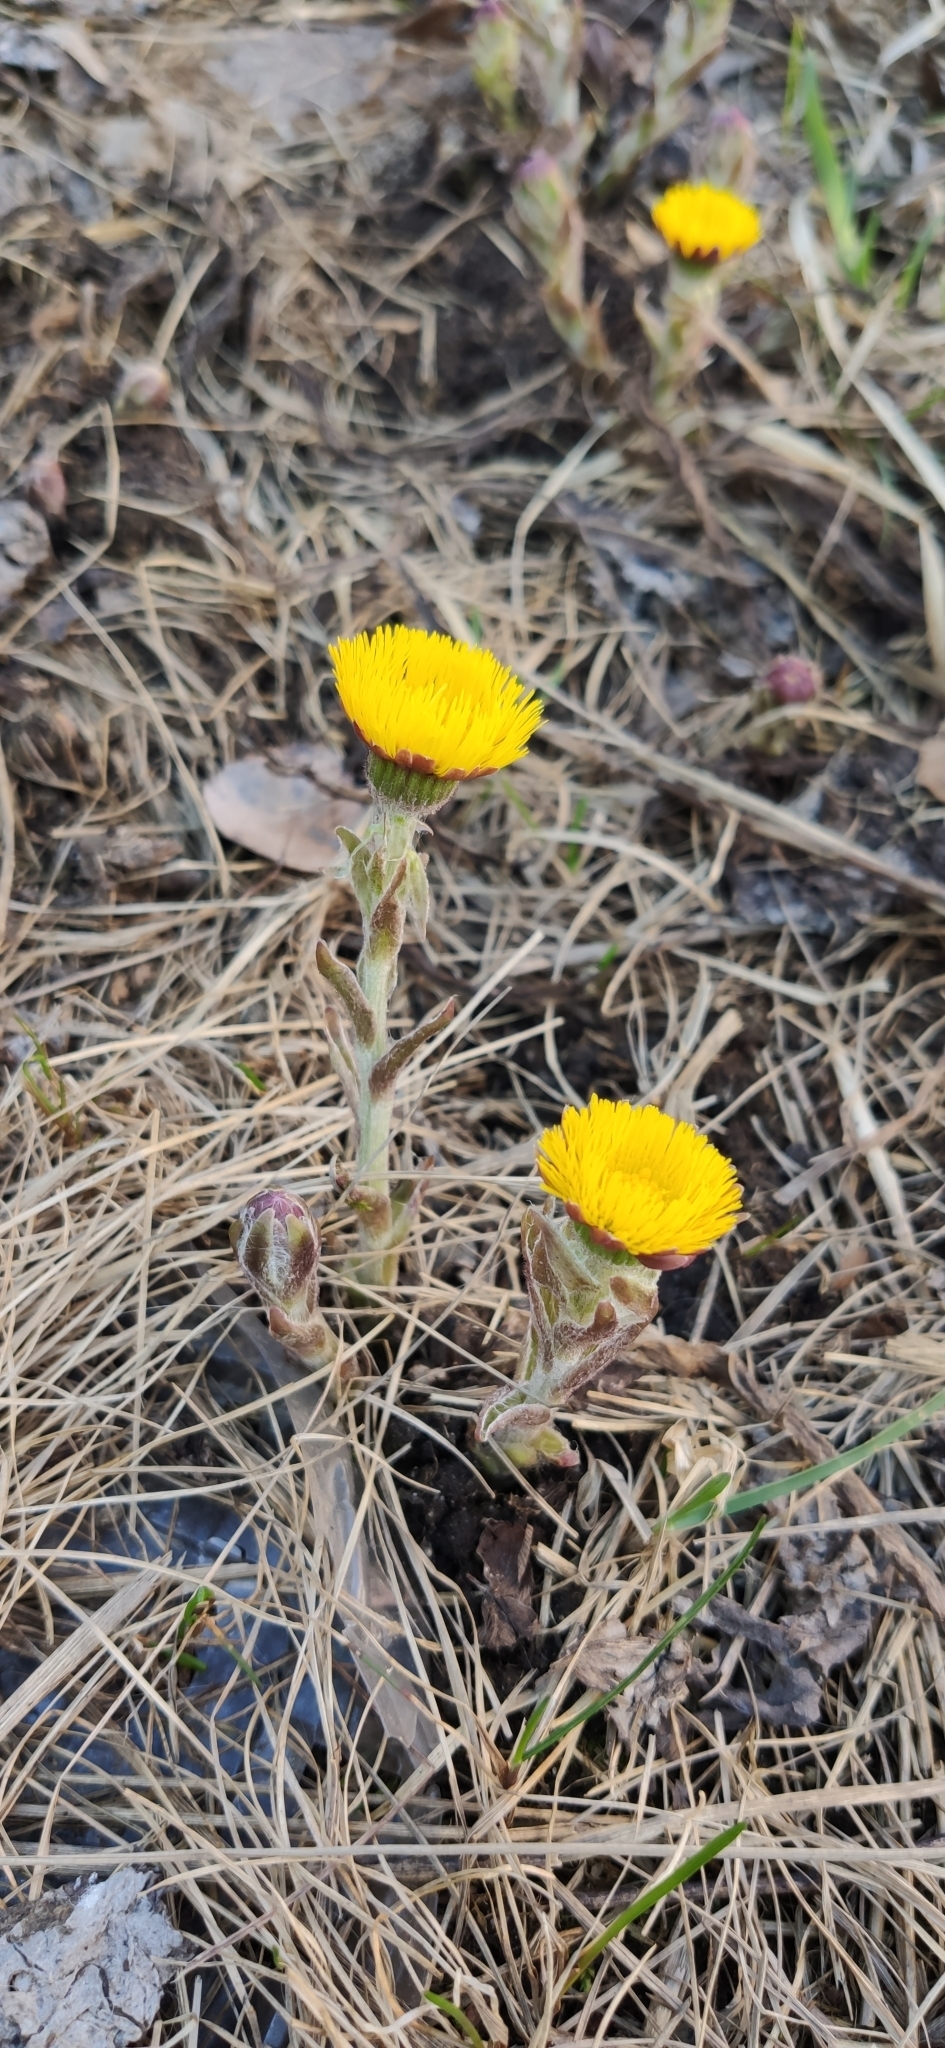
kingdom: Plantae
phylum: Tracheophyta
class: Magnoliopsida
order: Asterales
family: Asteraceae
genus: Tussilago
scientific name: Tussilago farfara
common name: Coltsfoot
